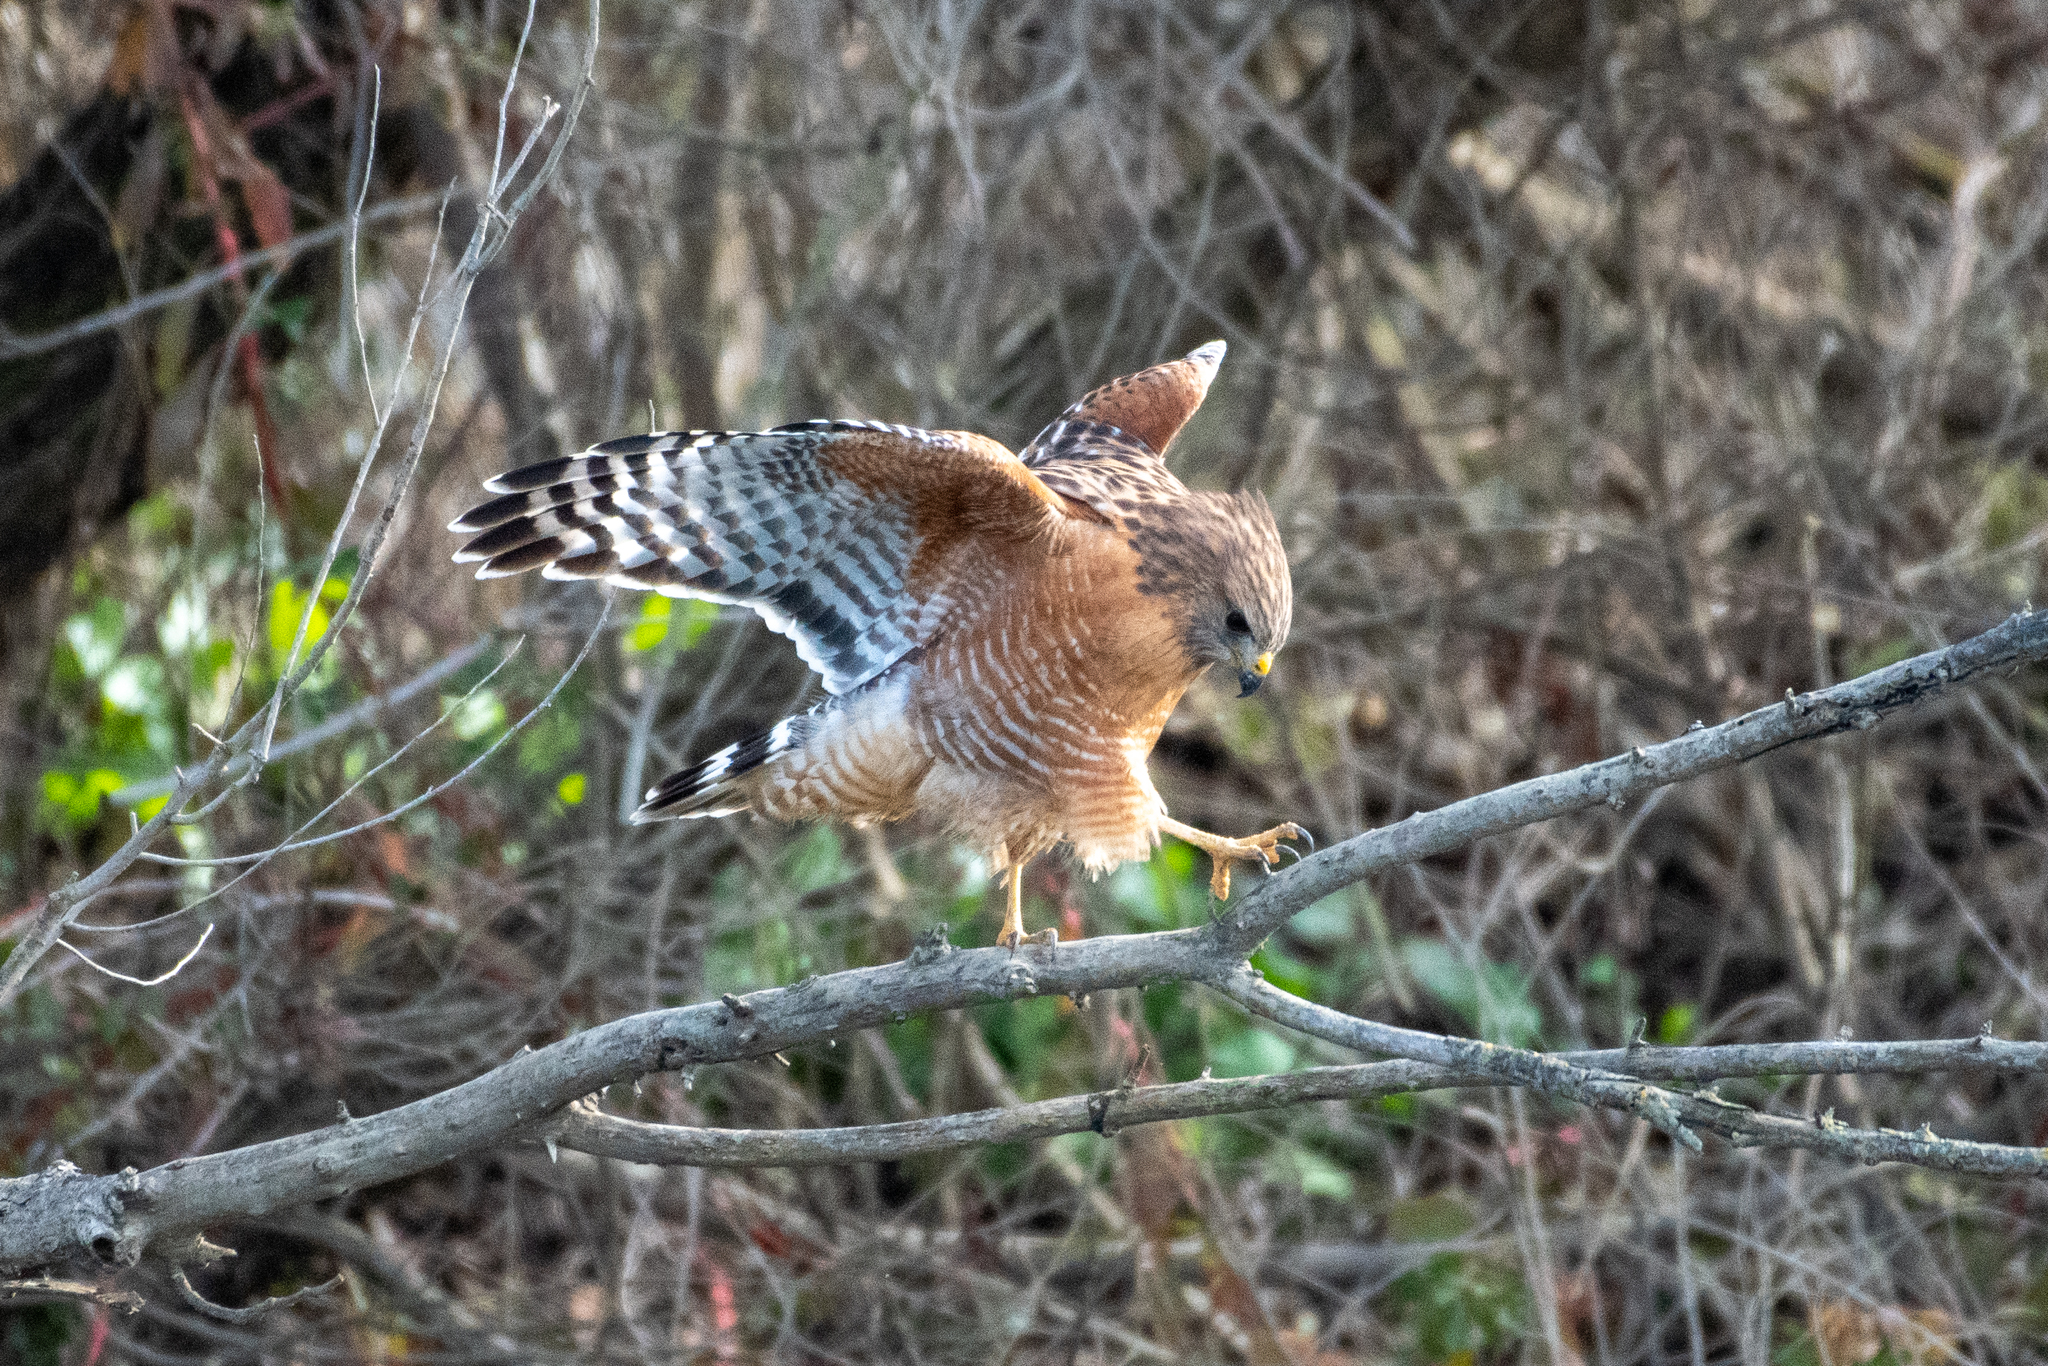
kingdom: Animalia
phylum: Chordata
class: Aves
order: Accipitriformes
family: Accipitridae
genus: Buteo
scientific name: Buteo lineatus
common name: Red-shouldered hawk
